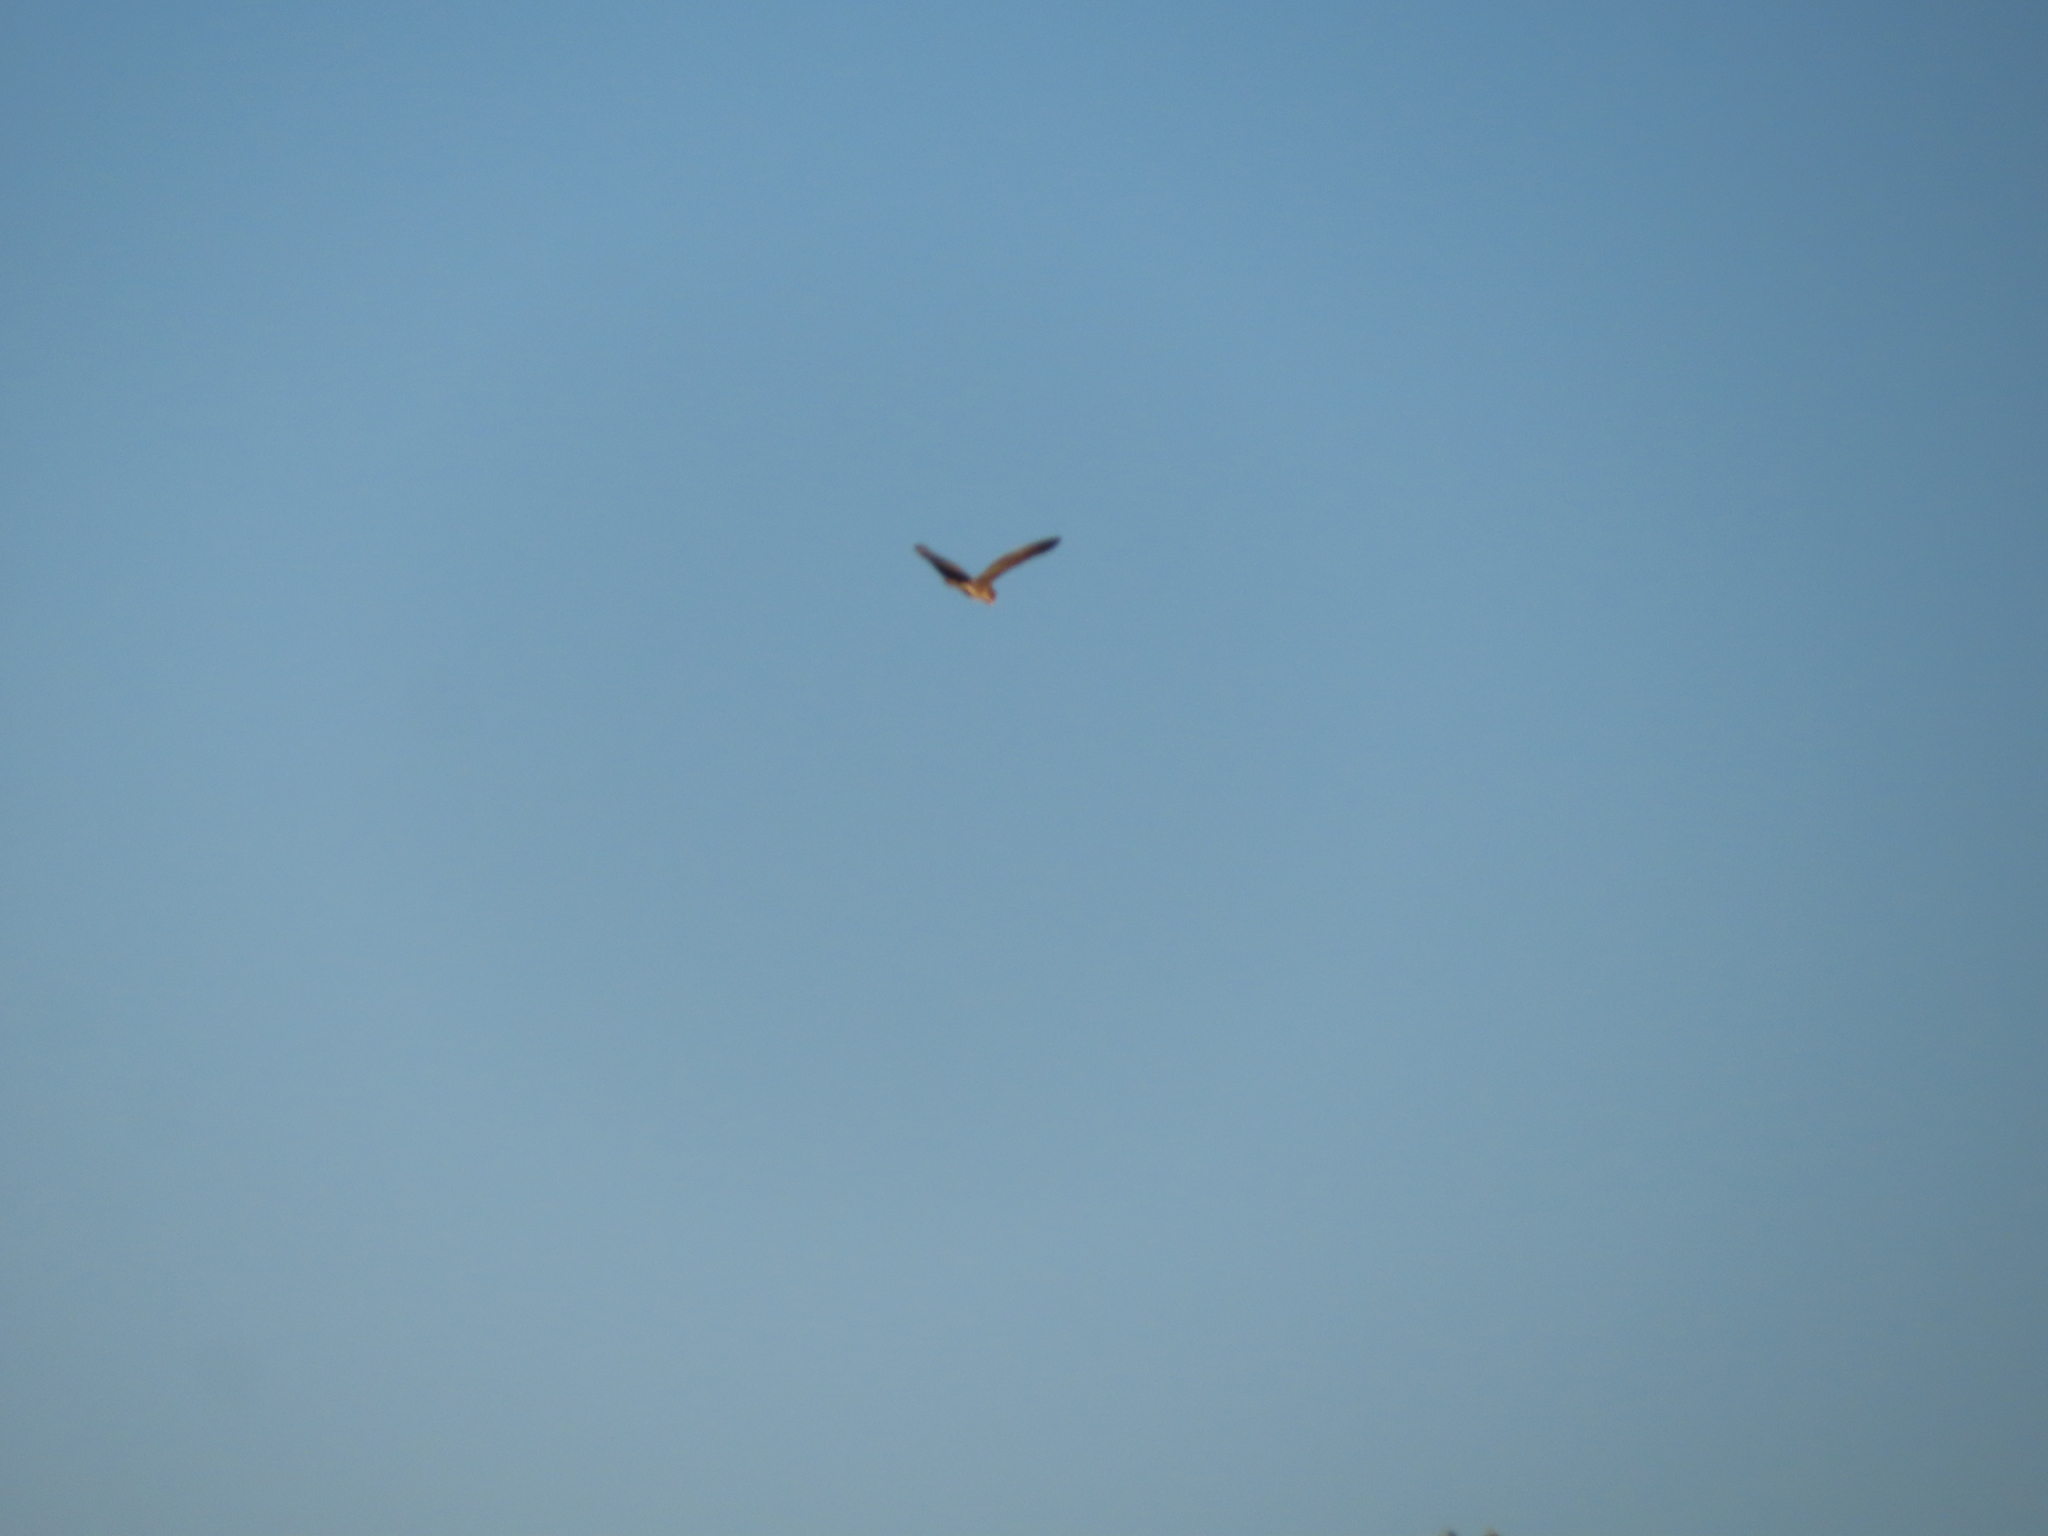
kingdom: Animalia
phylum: Chordata
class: Aves
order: Pelecaniformes
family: Ardeidae
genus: Butorides
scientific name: Butorides virescens
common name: Green heron
